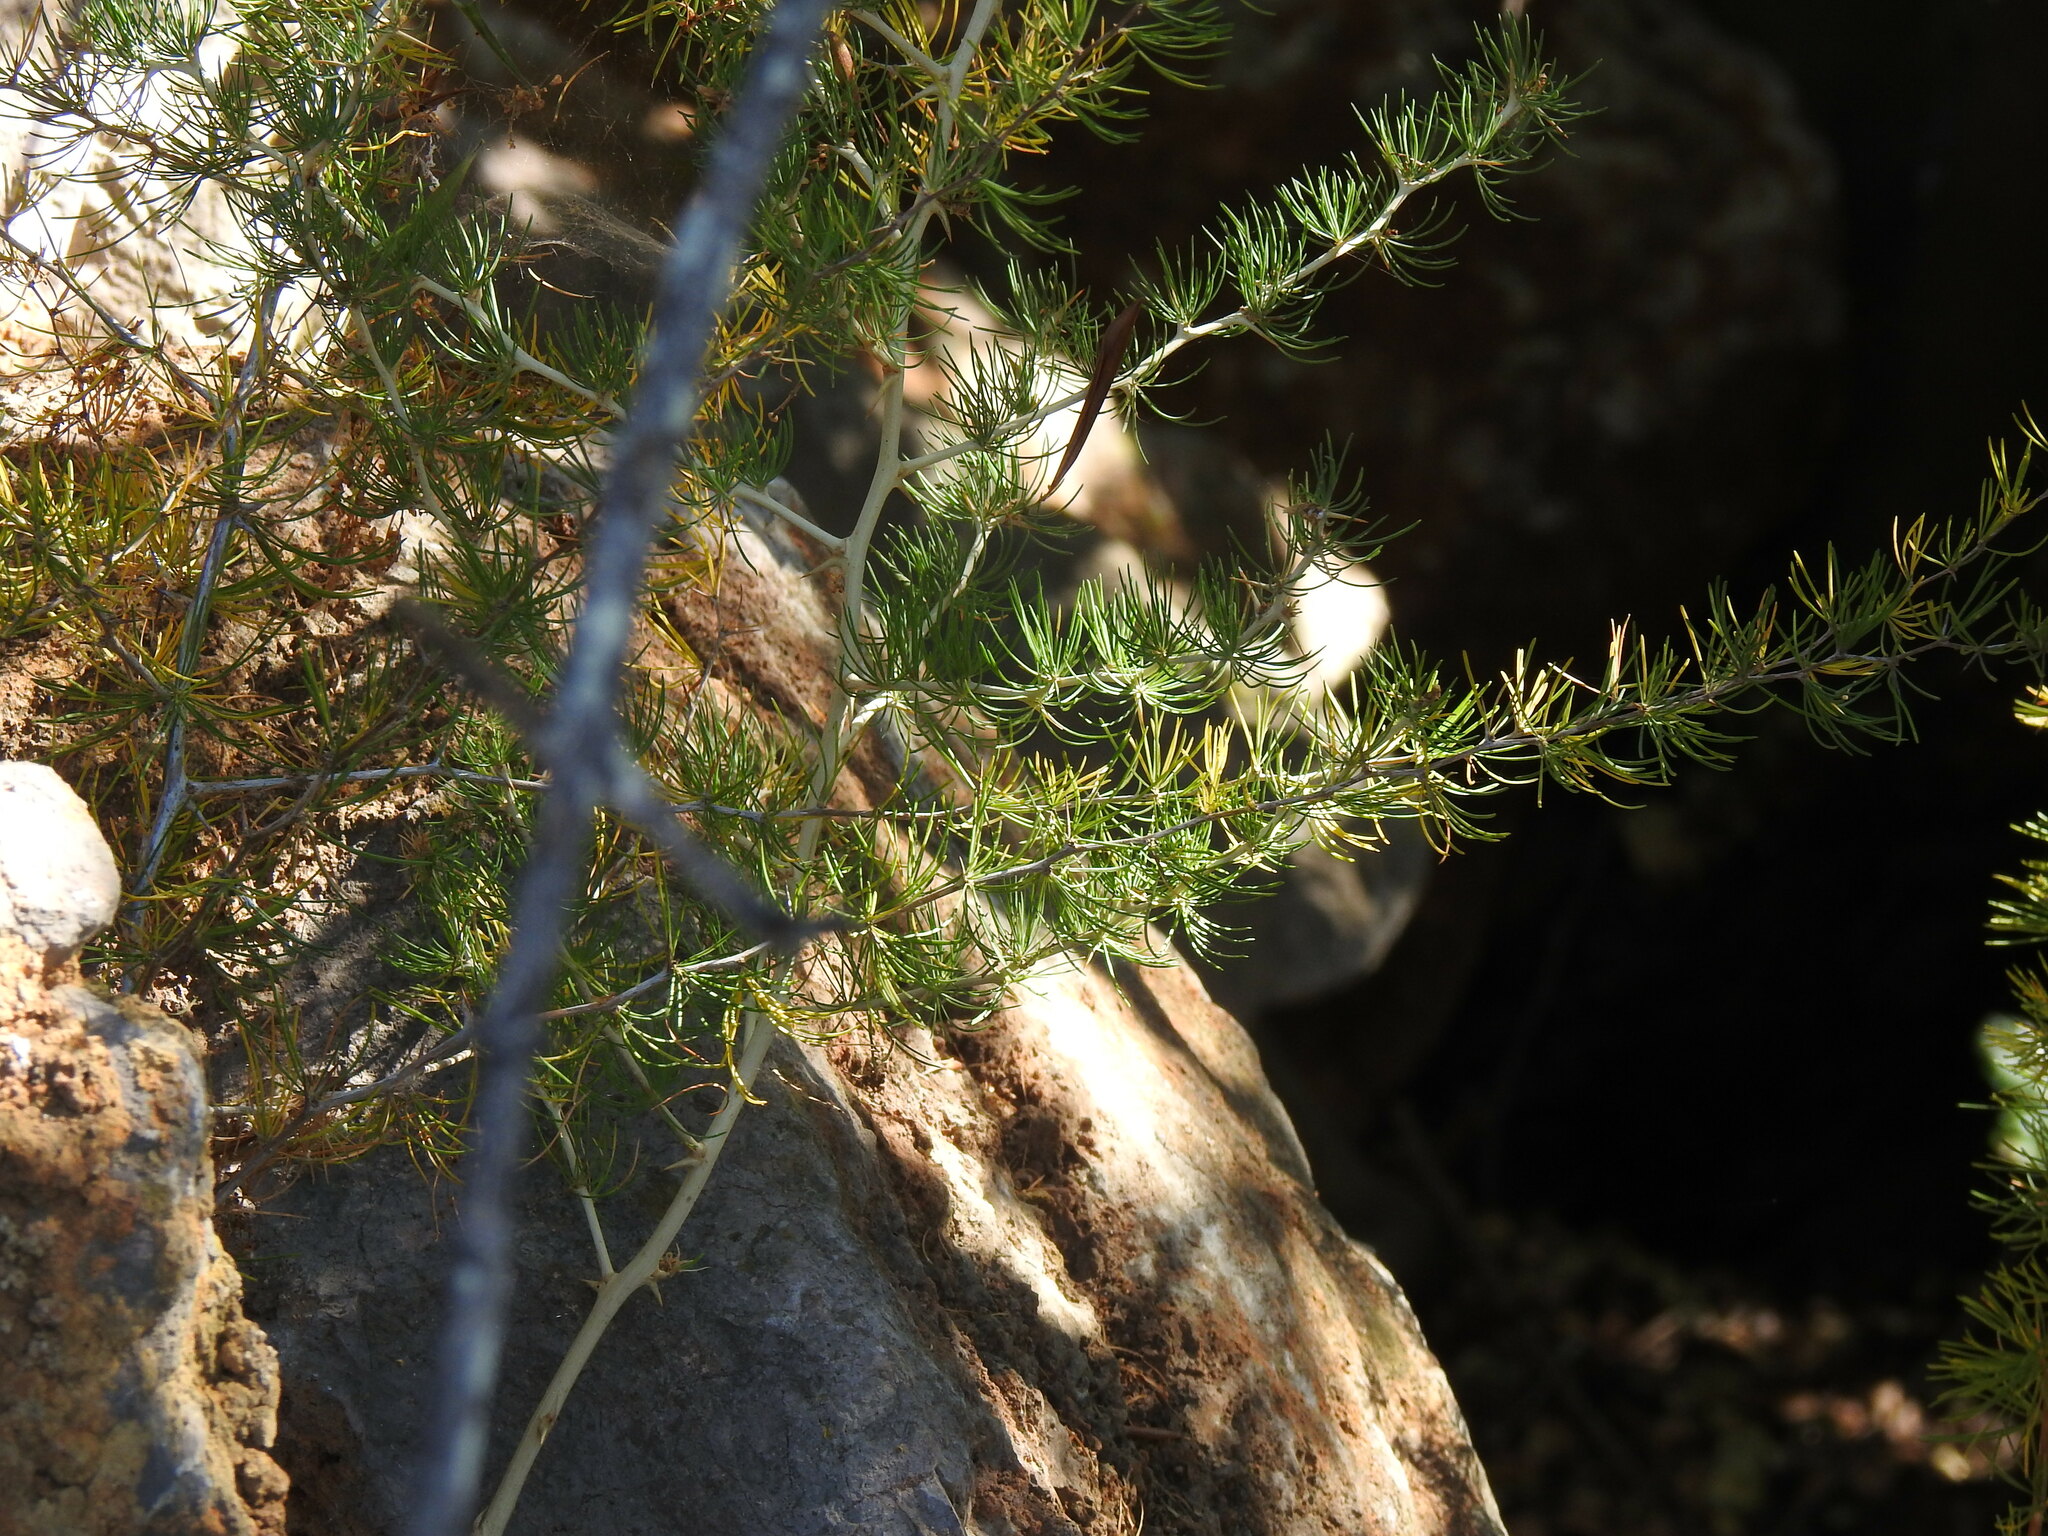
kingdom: Plantae
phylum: Tracheophyta
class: Liliopsida
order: Asparagales
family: Asparagaceae
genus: Asparagus
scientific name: Asparagus albus
